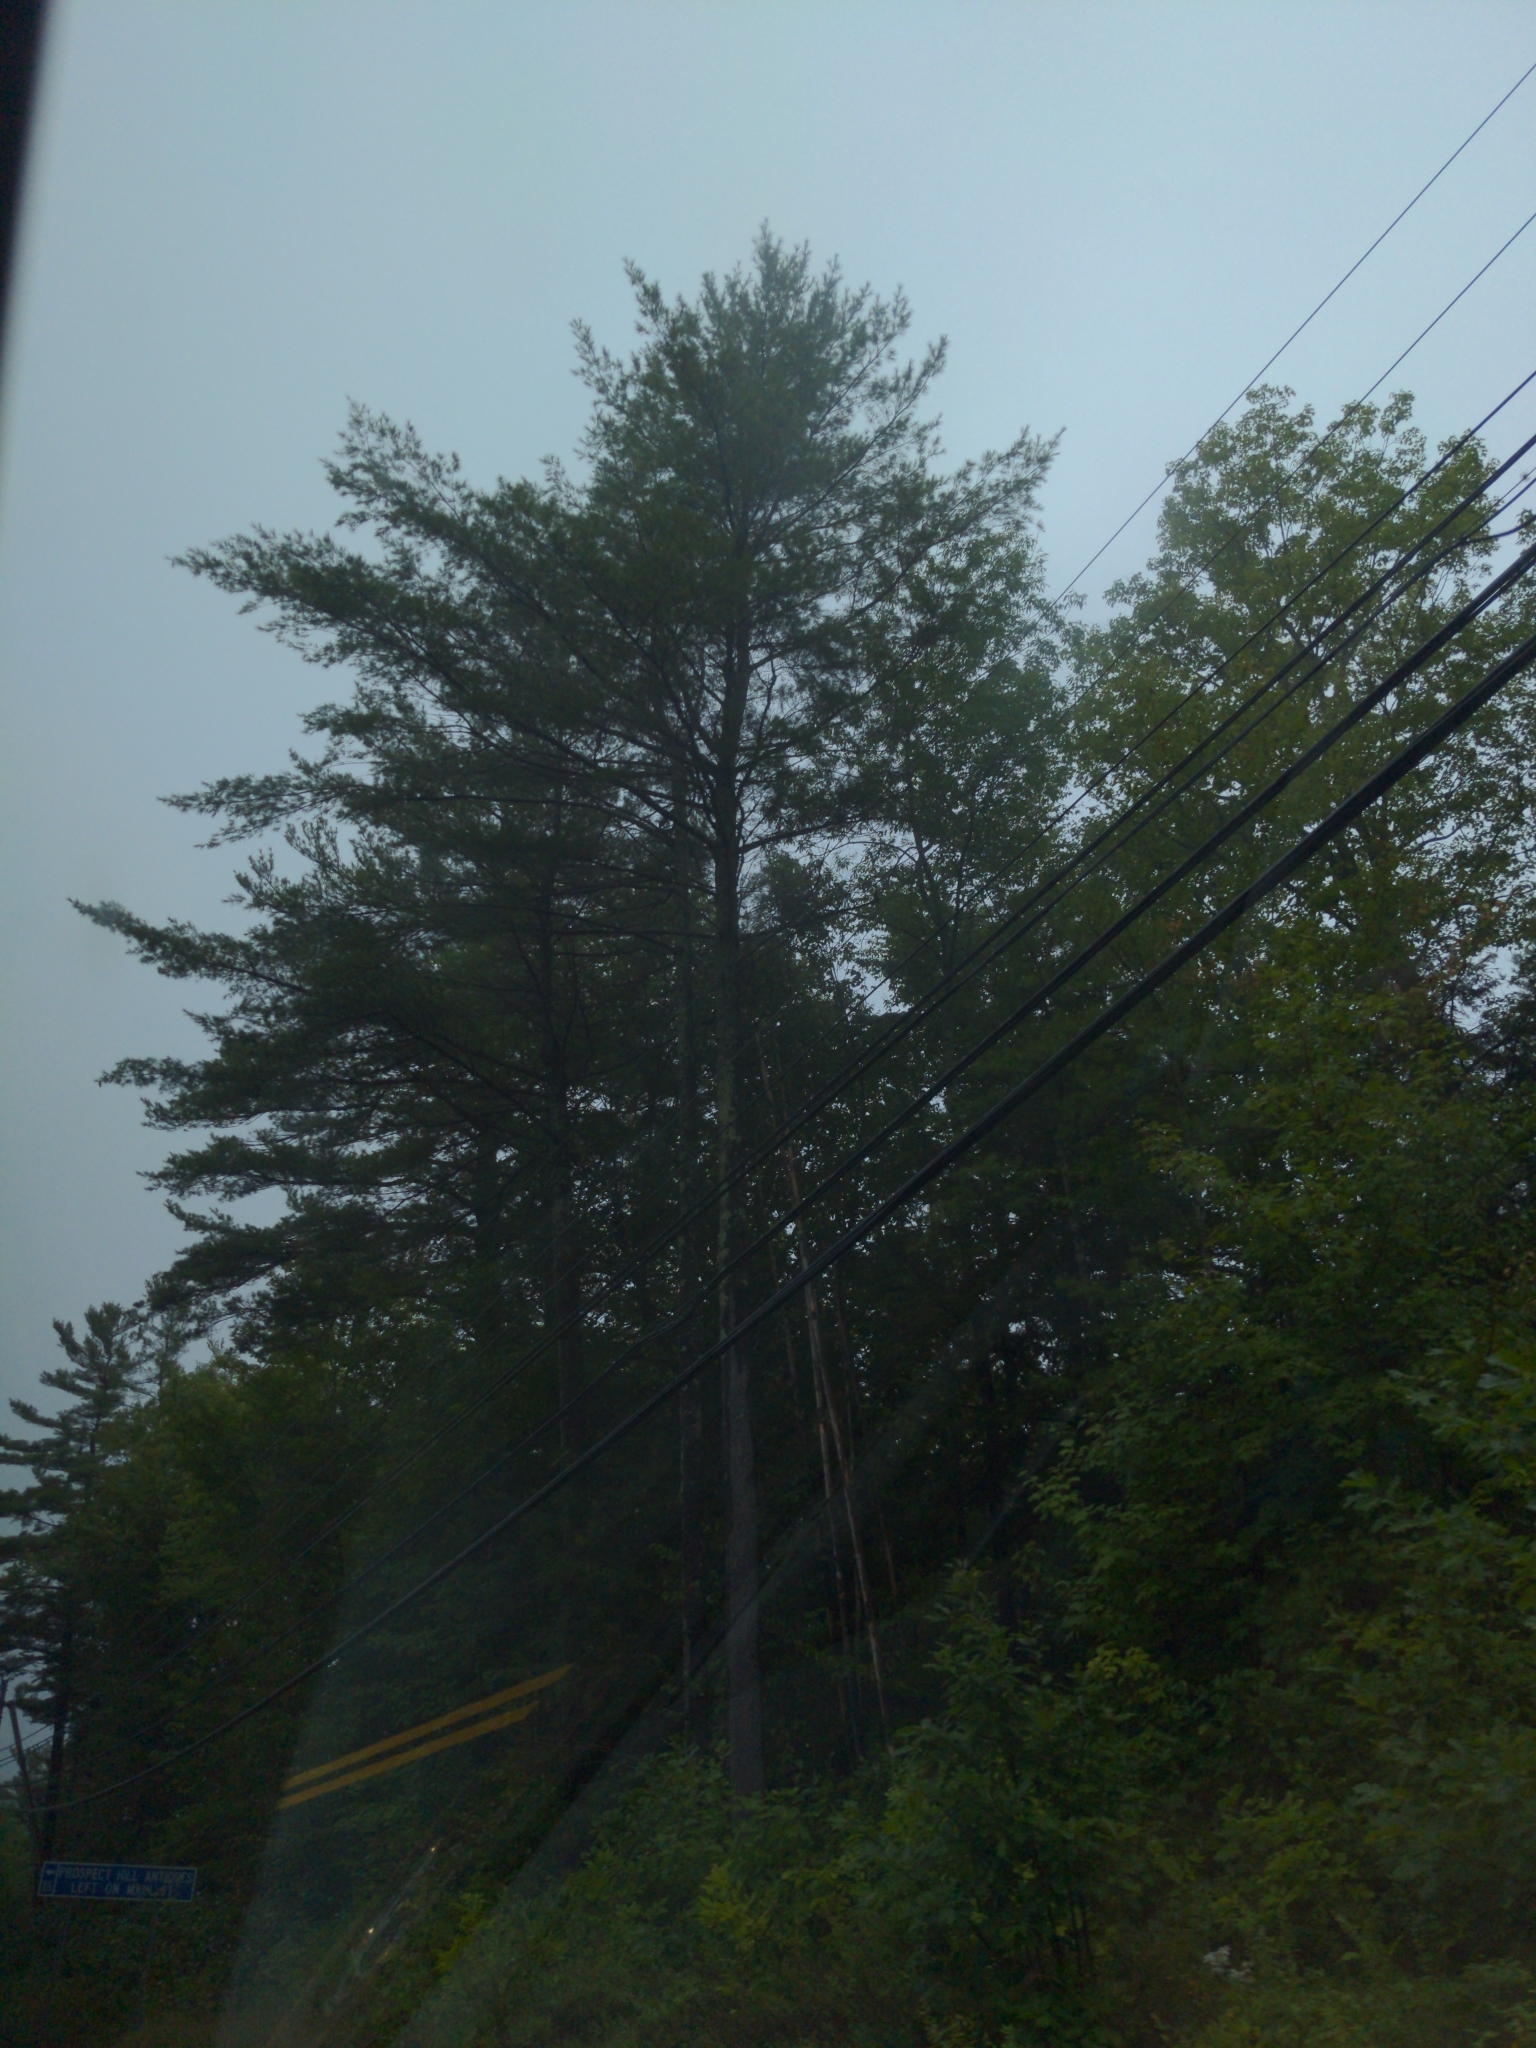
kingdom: Plantae
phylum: Tracheophyta
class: Pinopsida
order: Pinales
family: Pinaceae
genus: Pinus
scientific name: Pinus strobus
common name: Weymouth pine
